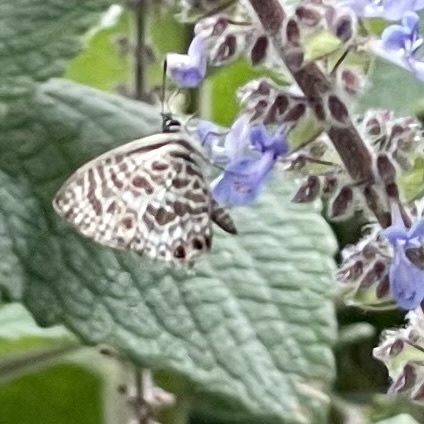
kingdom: Animalia
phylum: Arthropoda
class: Insecta
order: Lepidoptera
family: Lycaenidae
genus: Leptotes
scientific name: Leptotes plinius
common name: Zebra blue
